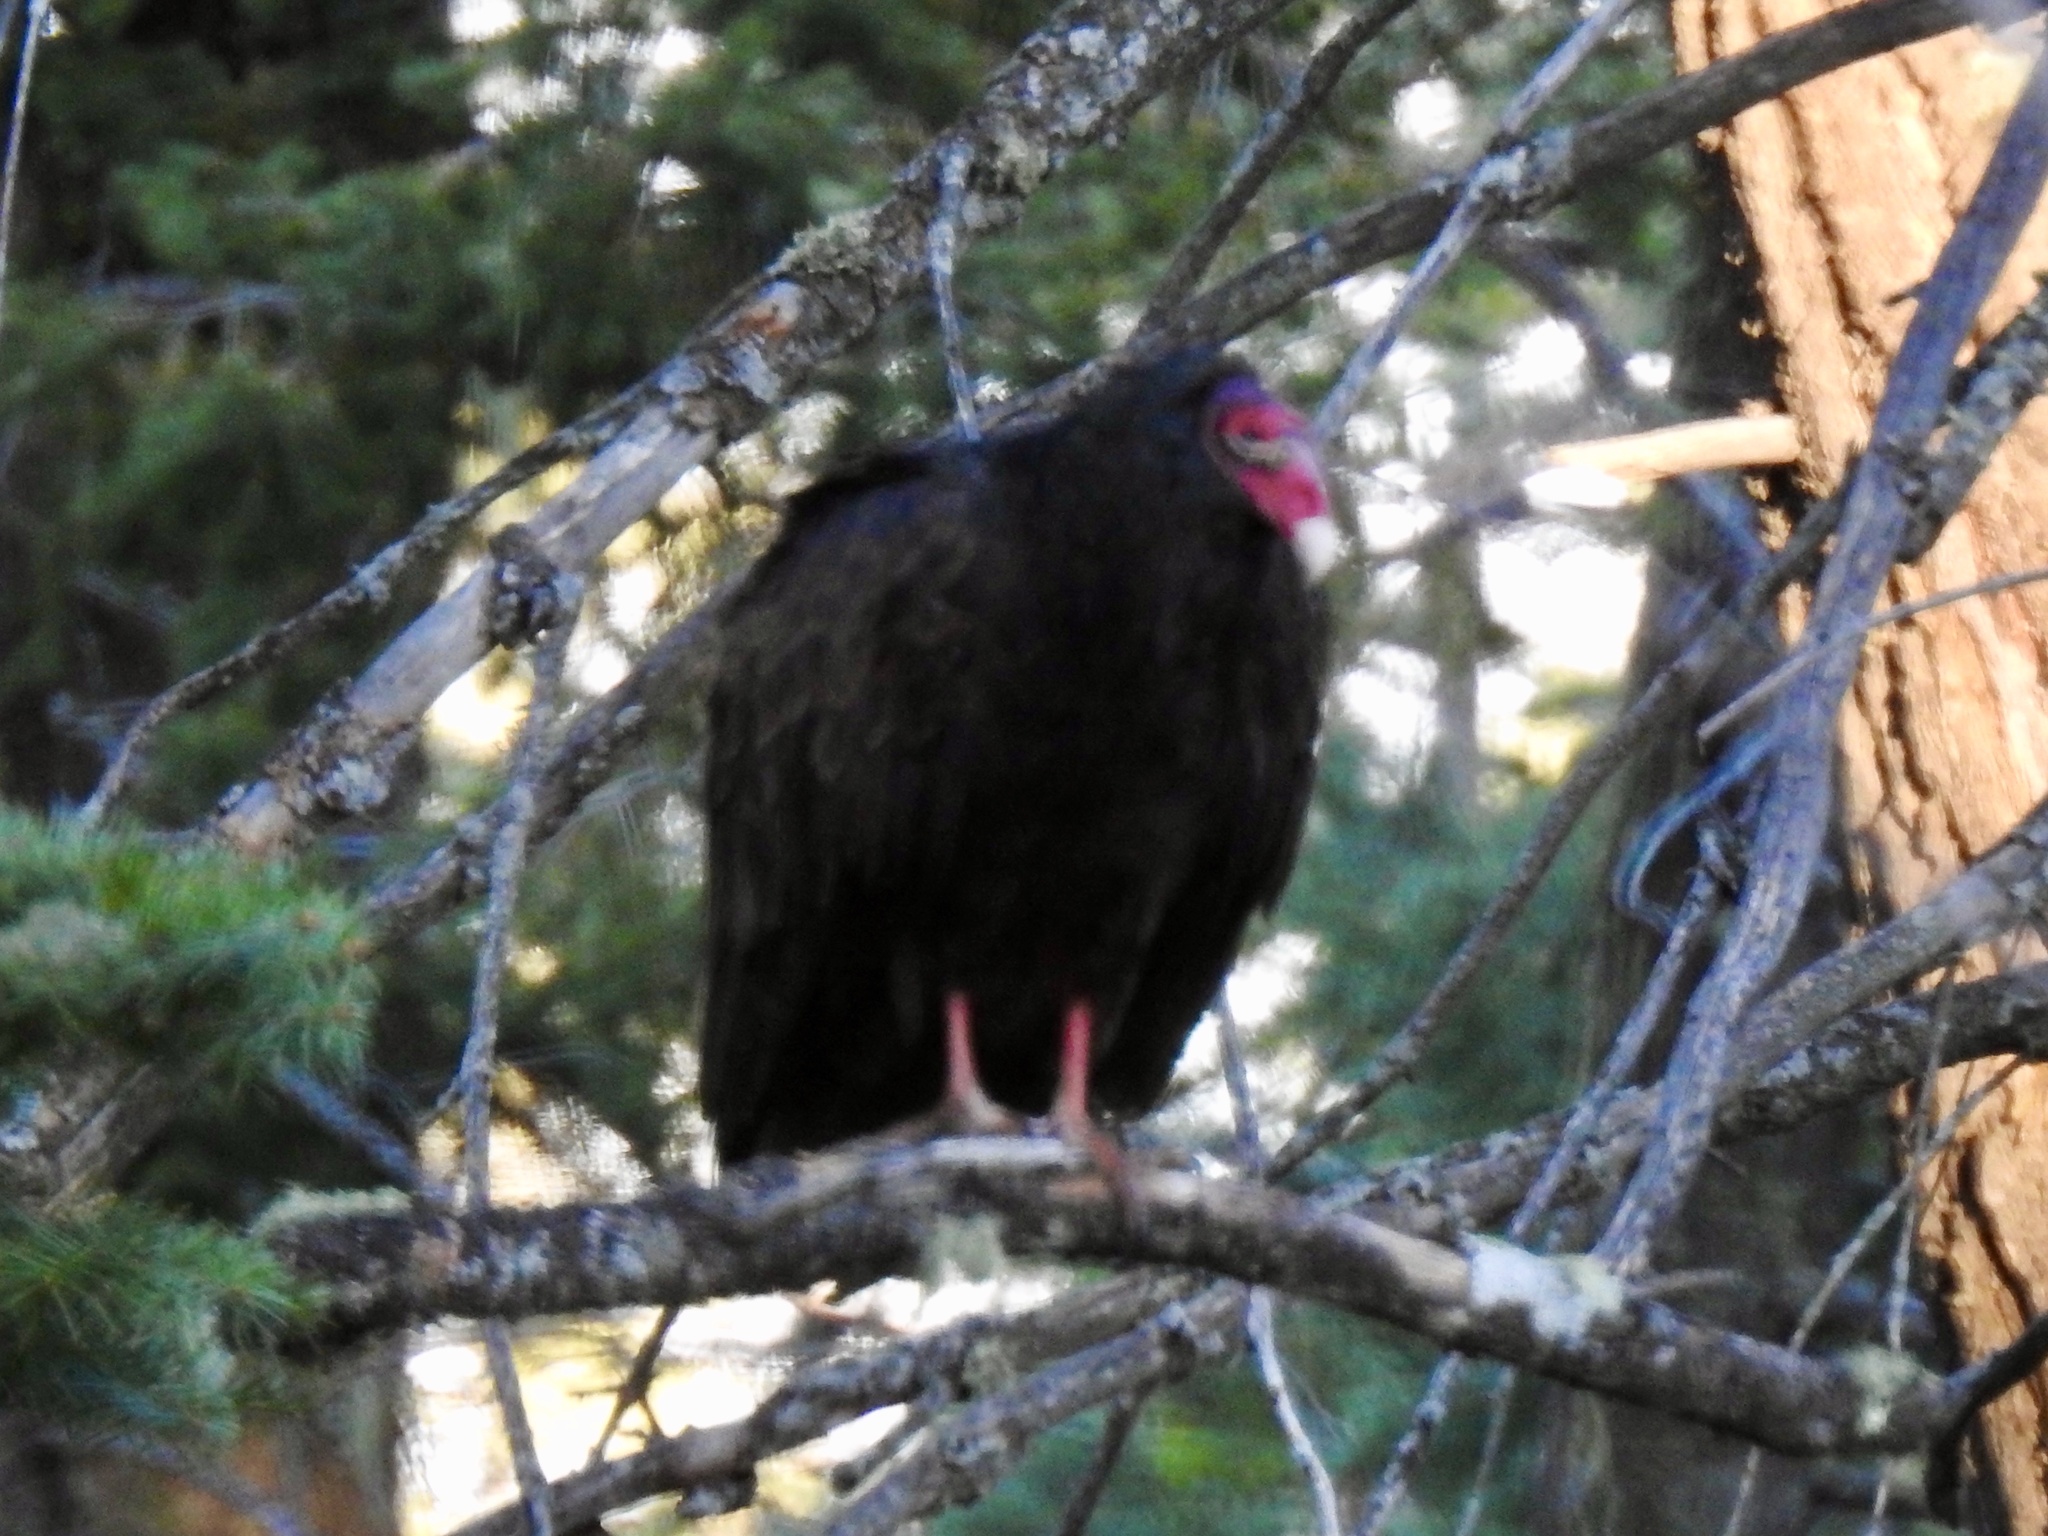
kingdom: Animalia
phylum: Chordata
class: Aves
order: Accipitriformes
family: Cathartidae
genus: Cathartes
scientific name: Cathartes aura
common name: Turkey vulture
